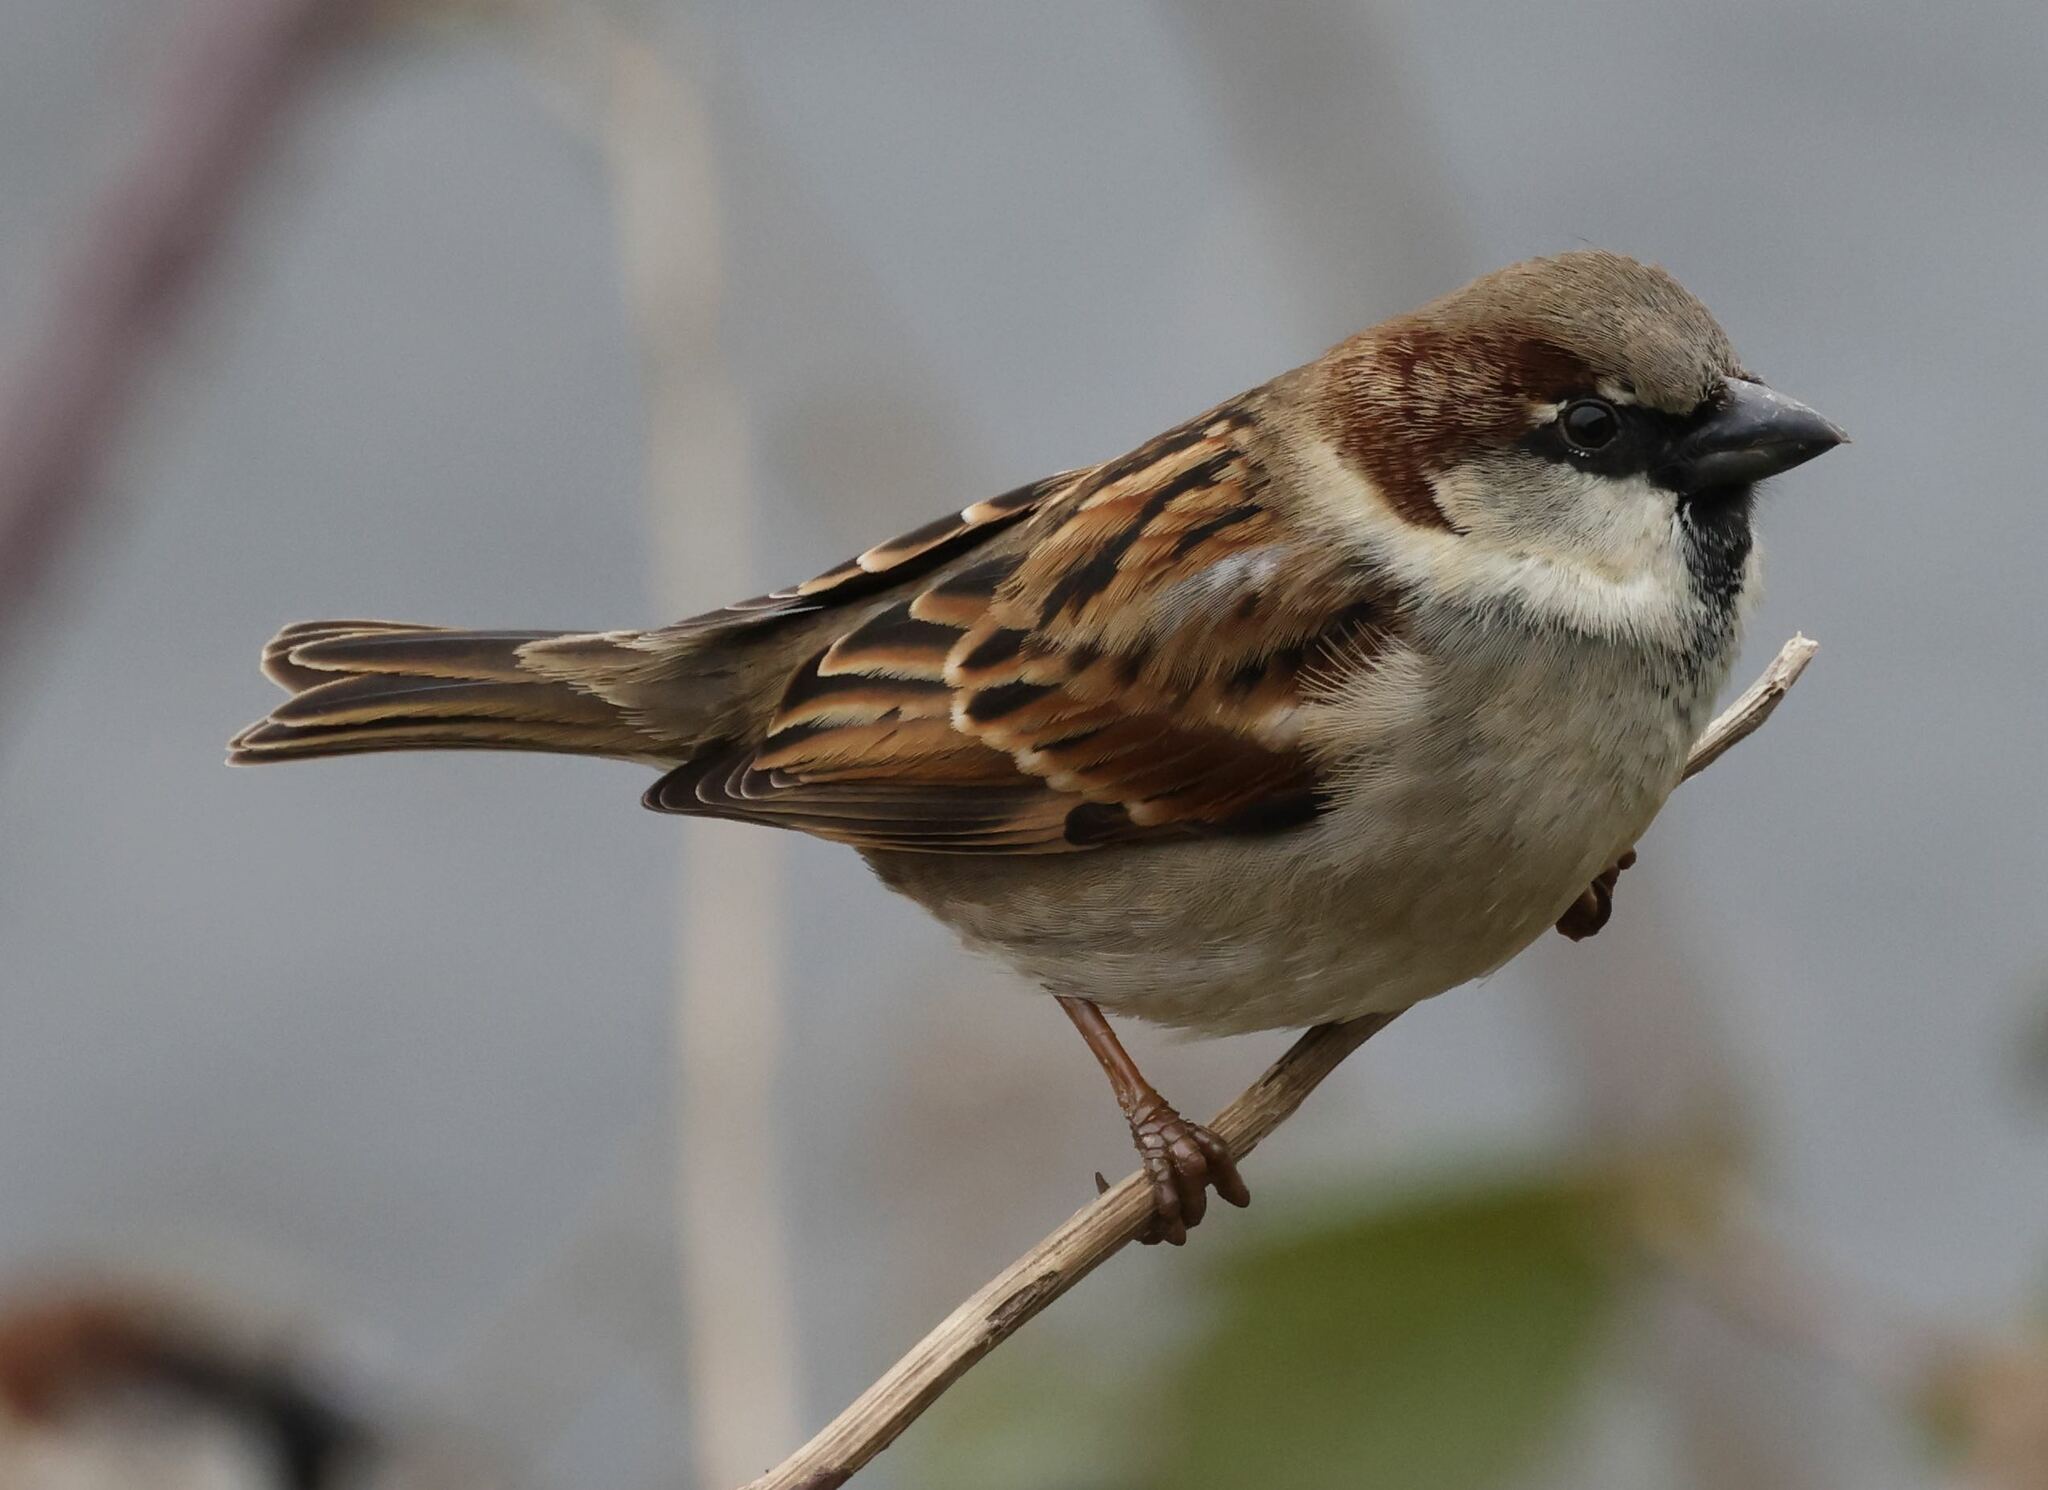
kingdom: Animalia
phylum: Chordata
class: Aves
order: Passeriformes
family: Passeridae
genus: Passer
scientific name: Passer domesticus
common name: House sparrow
